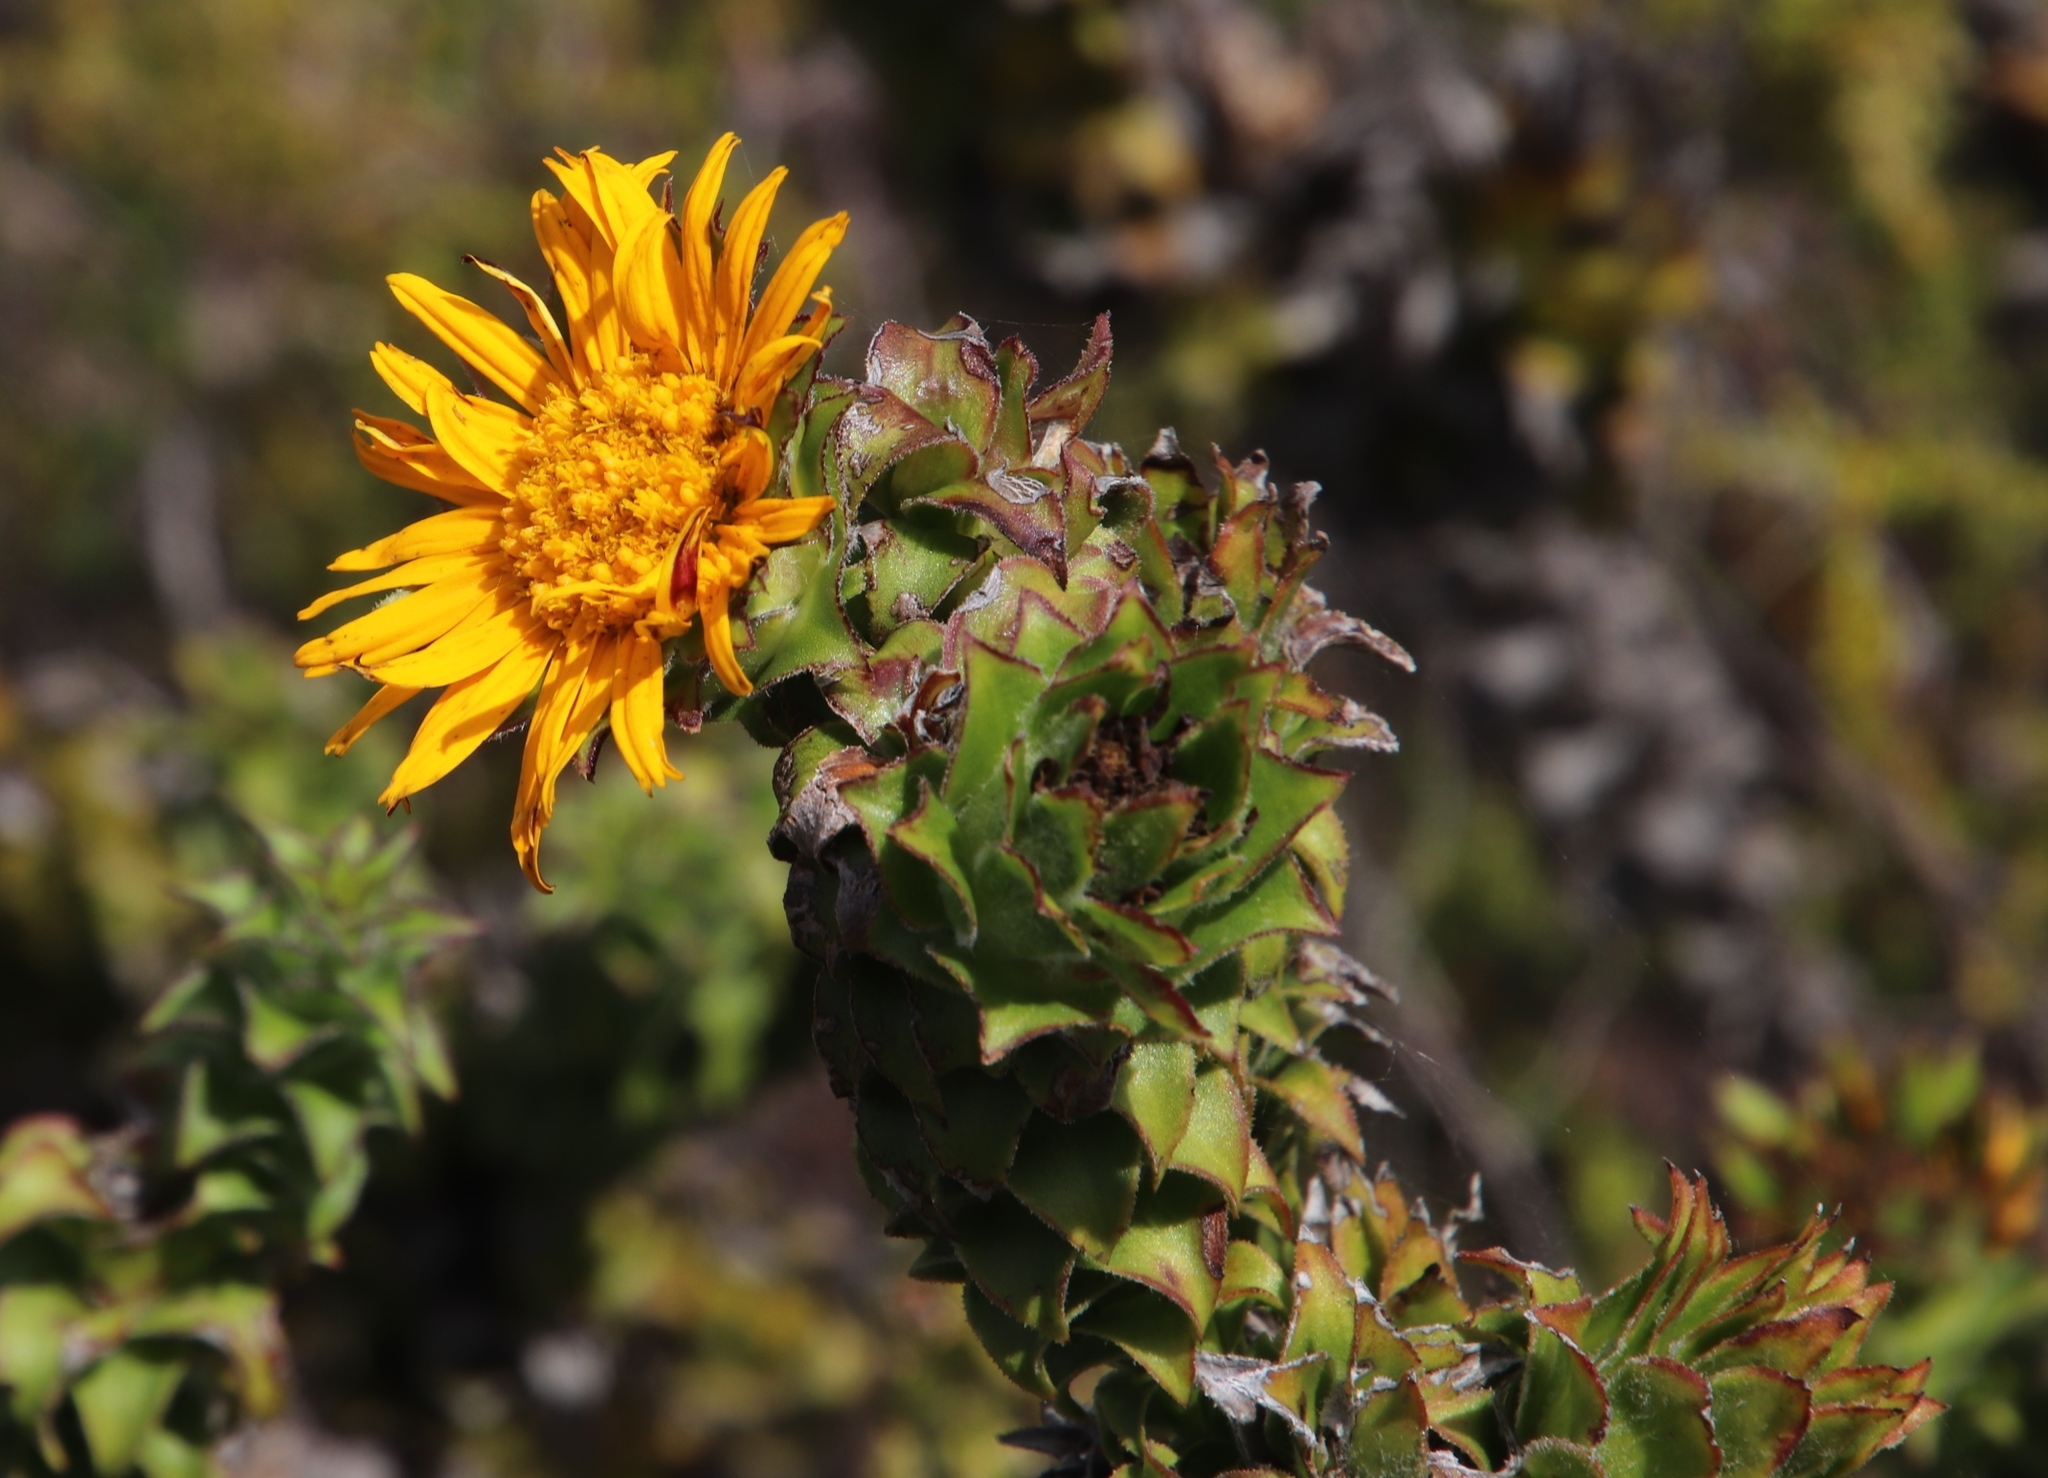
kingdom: Plantae
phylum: Tracheophyta
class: Magnoliopsida
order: Asterales
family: Asteraceae
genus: Oedera
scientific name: Oedera imbricata
